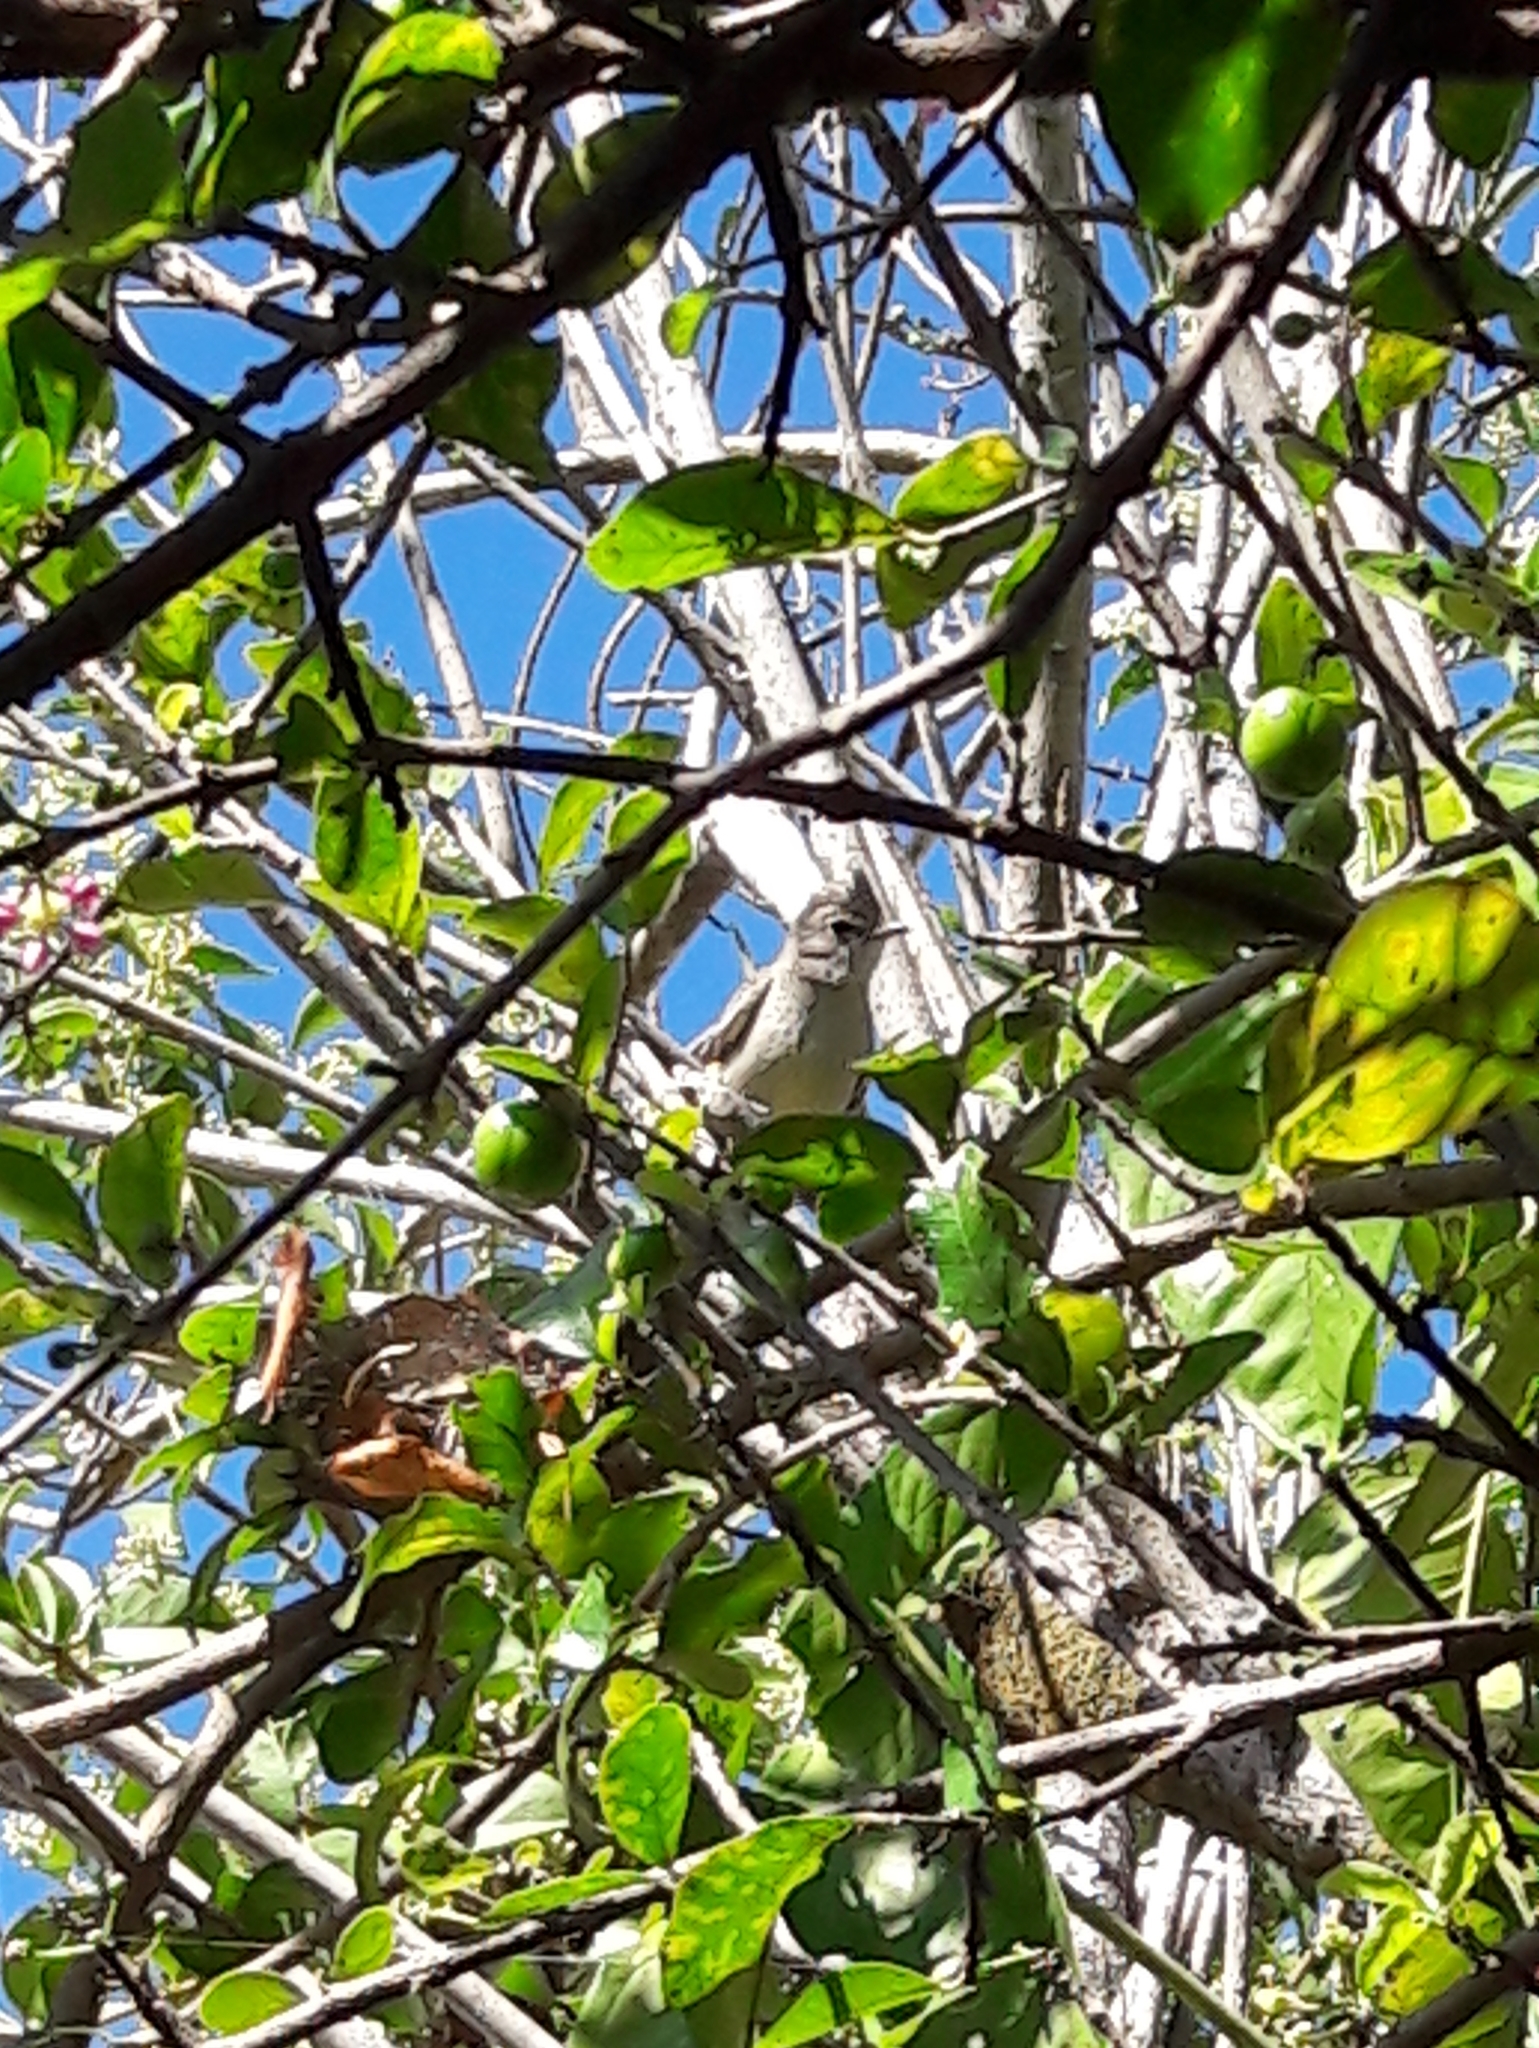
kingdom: Animalia
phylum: Chordata
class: Aves
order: Passeriformes
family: Tyrannidae
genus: Camptostoma
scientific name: Camptostoma obsoletum
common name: Southern beardless-tyrannulet
